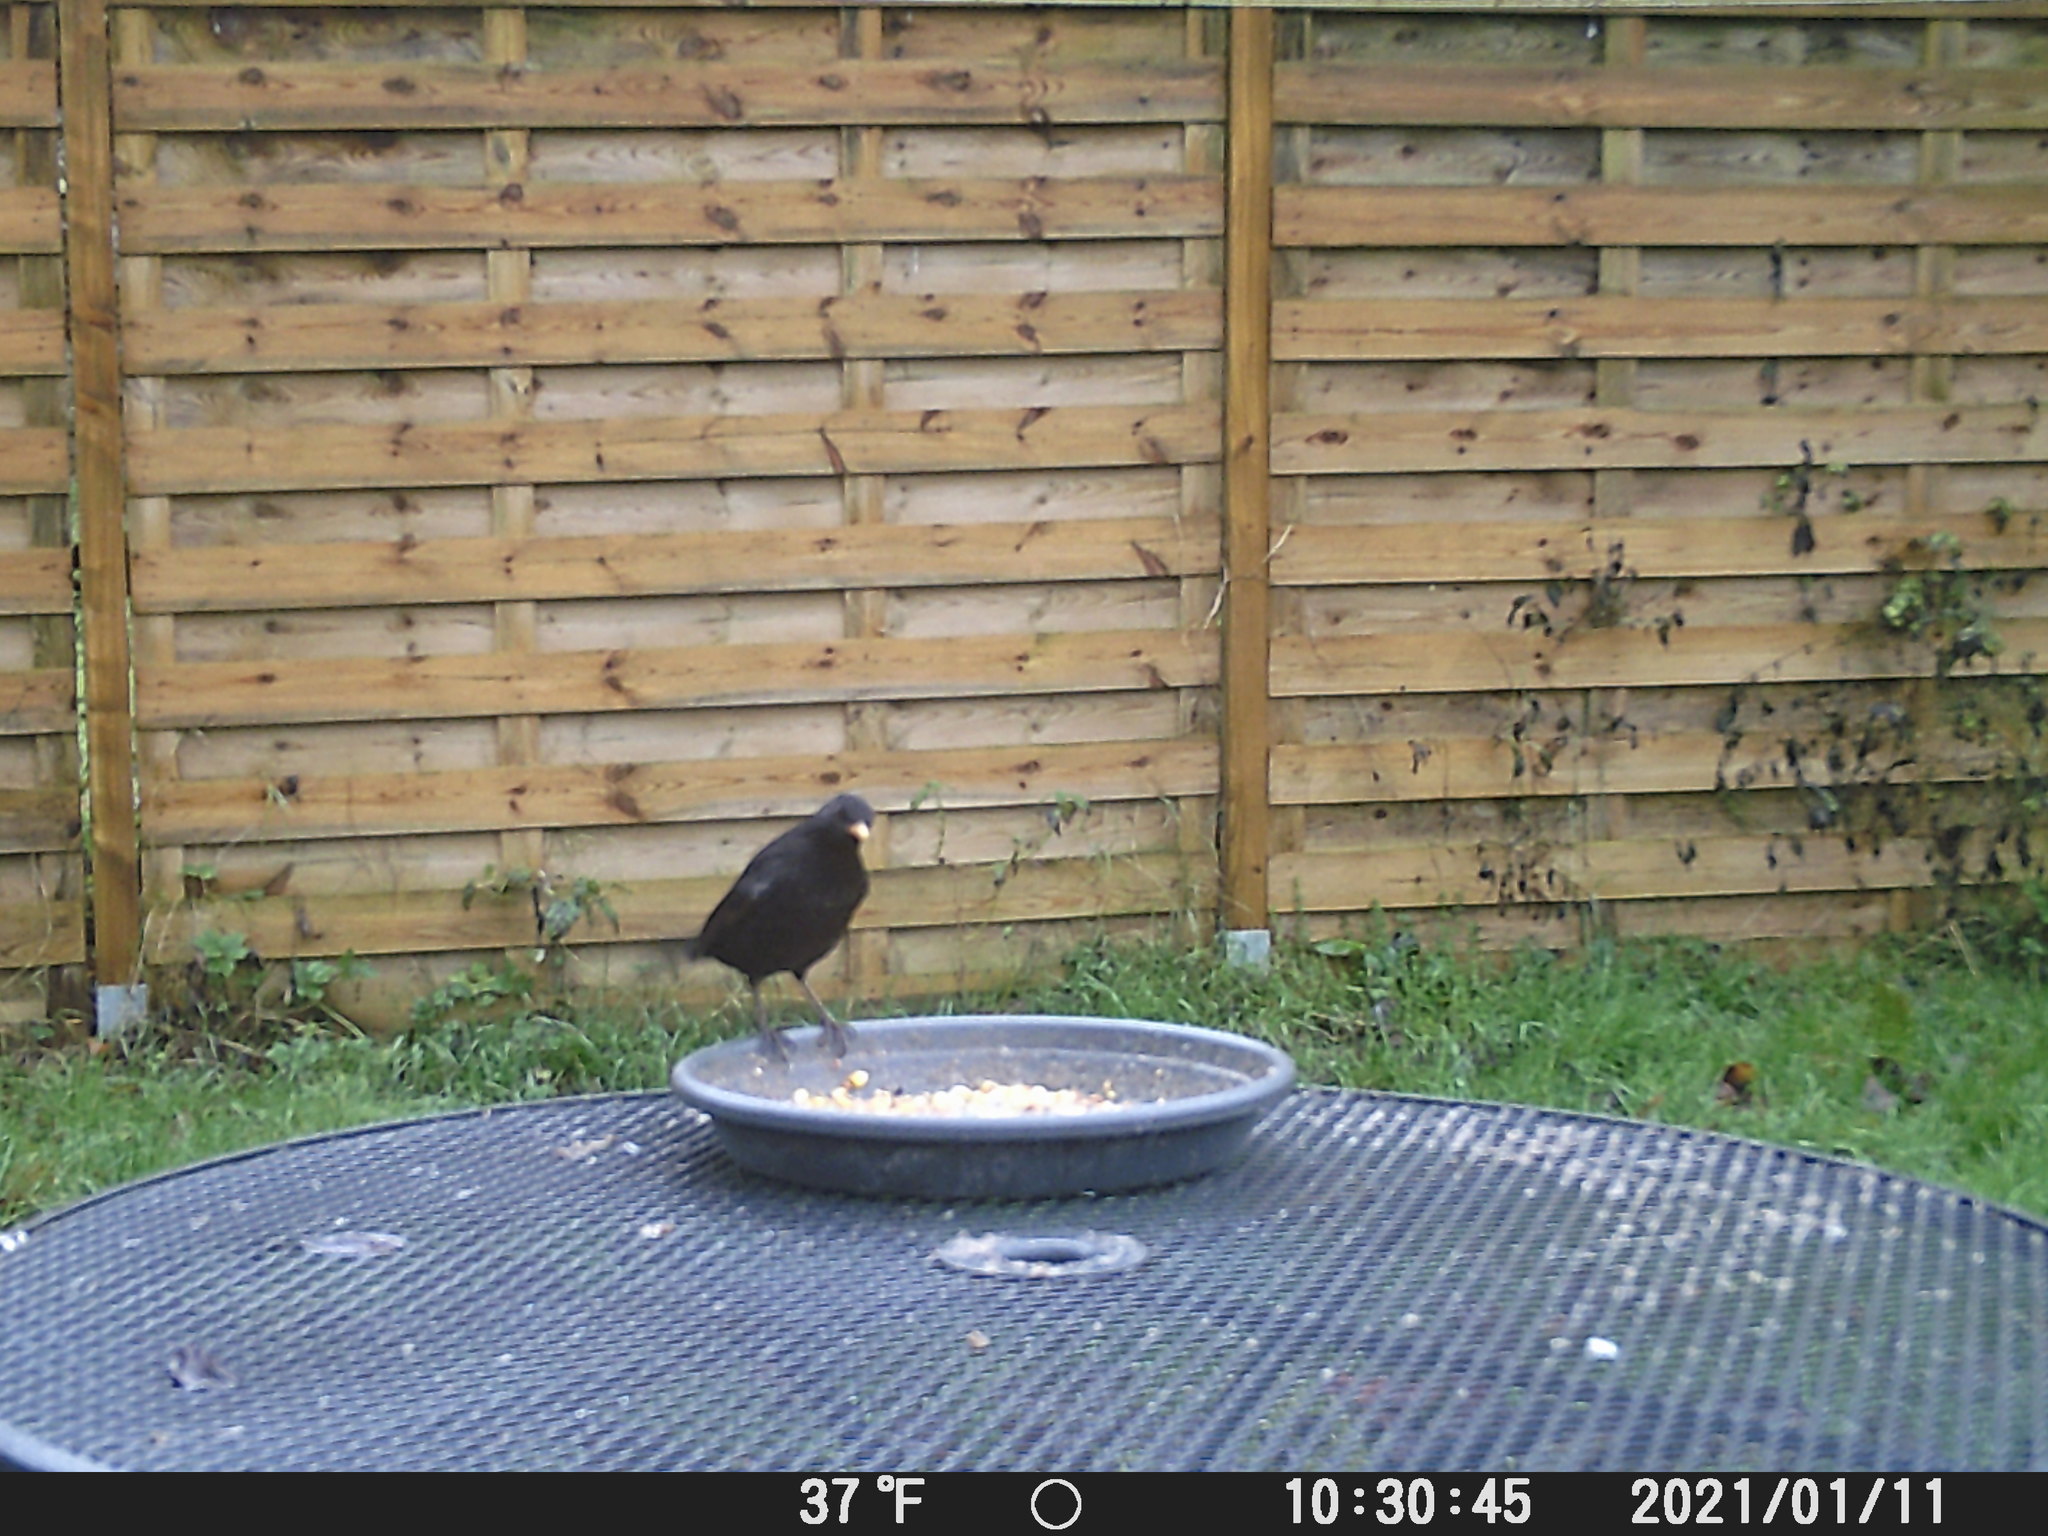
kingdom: Animalia
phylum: Chordata
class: Aves
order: Passeriformes
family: Turdidae
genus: Turdus
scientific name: Turdus merula
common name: Common blackbird
